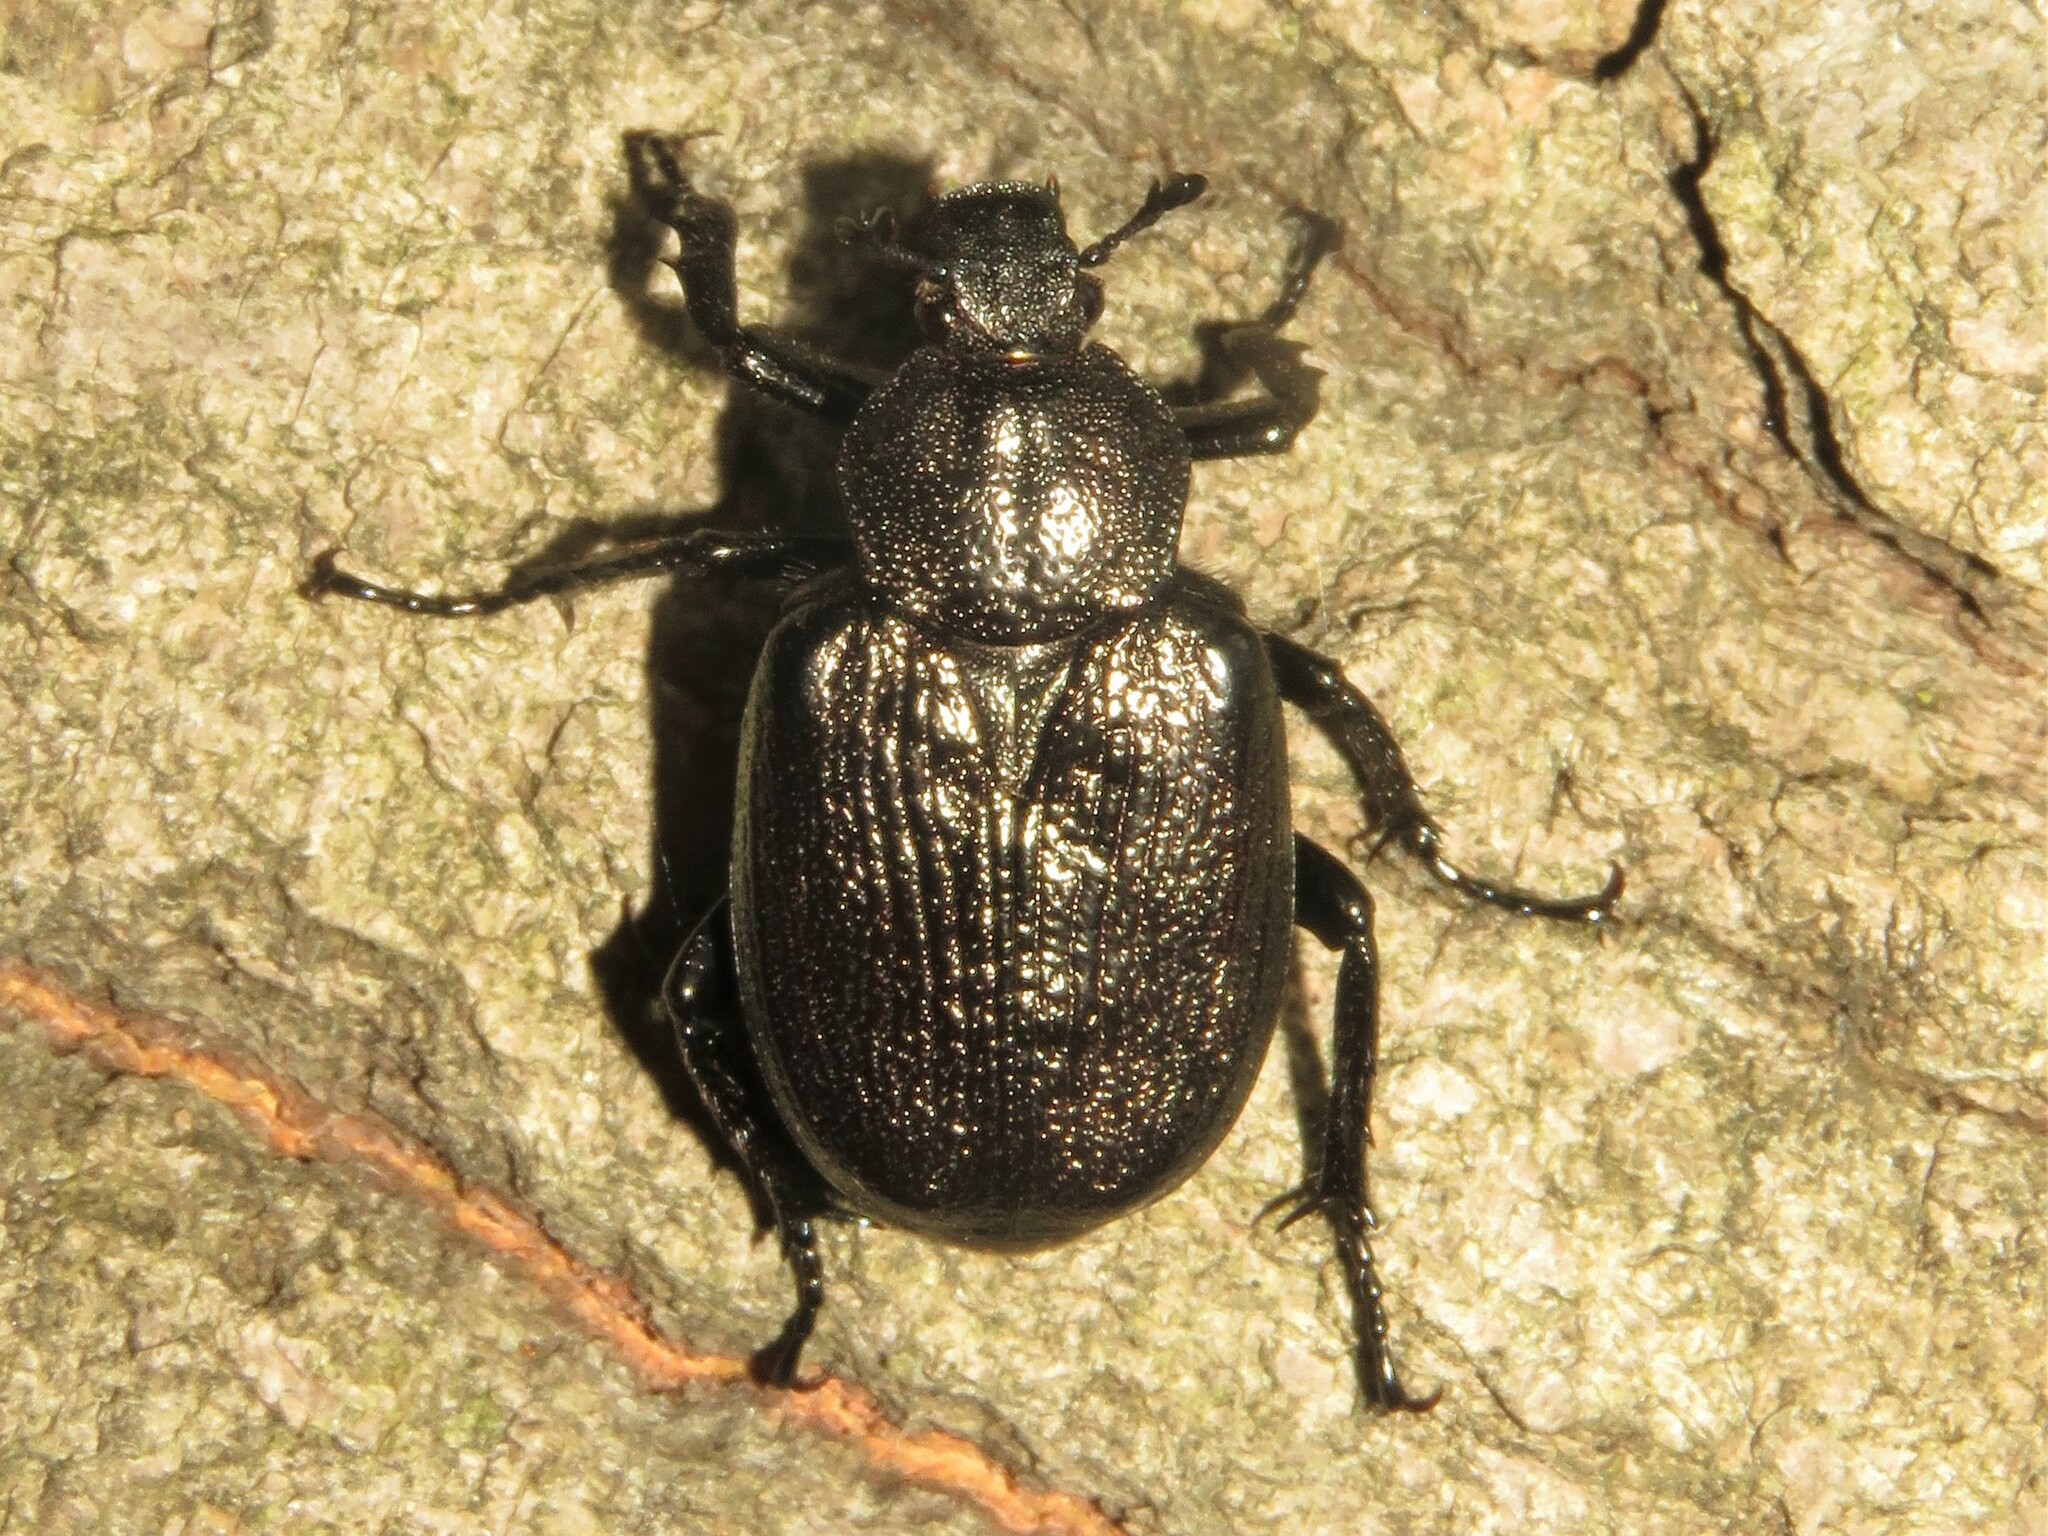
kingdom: Animalia
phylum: Arthropoda
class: Insecta
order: Coleoptera
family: Scarabaeidae
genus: Osmoderma
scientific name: Osmoderma scabra
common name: Rough hermit beetle
